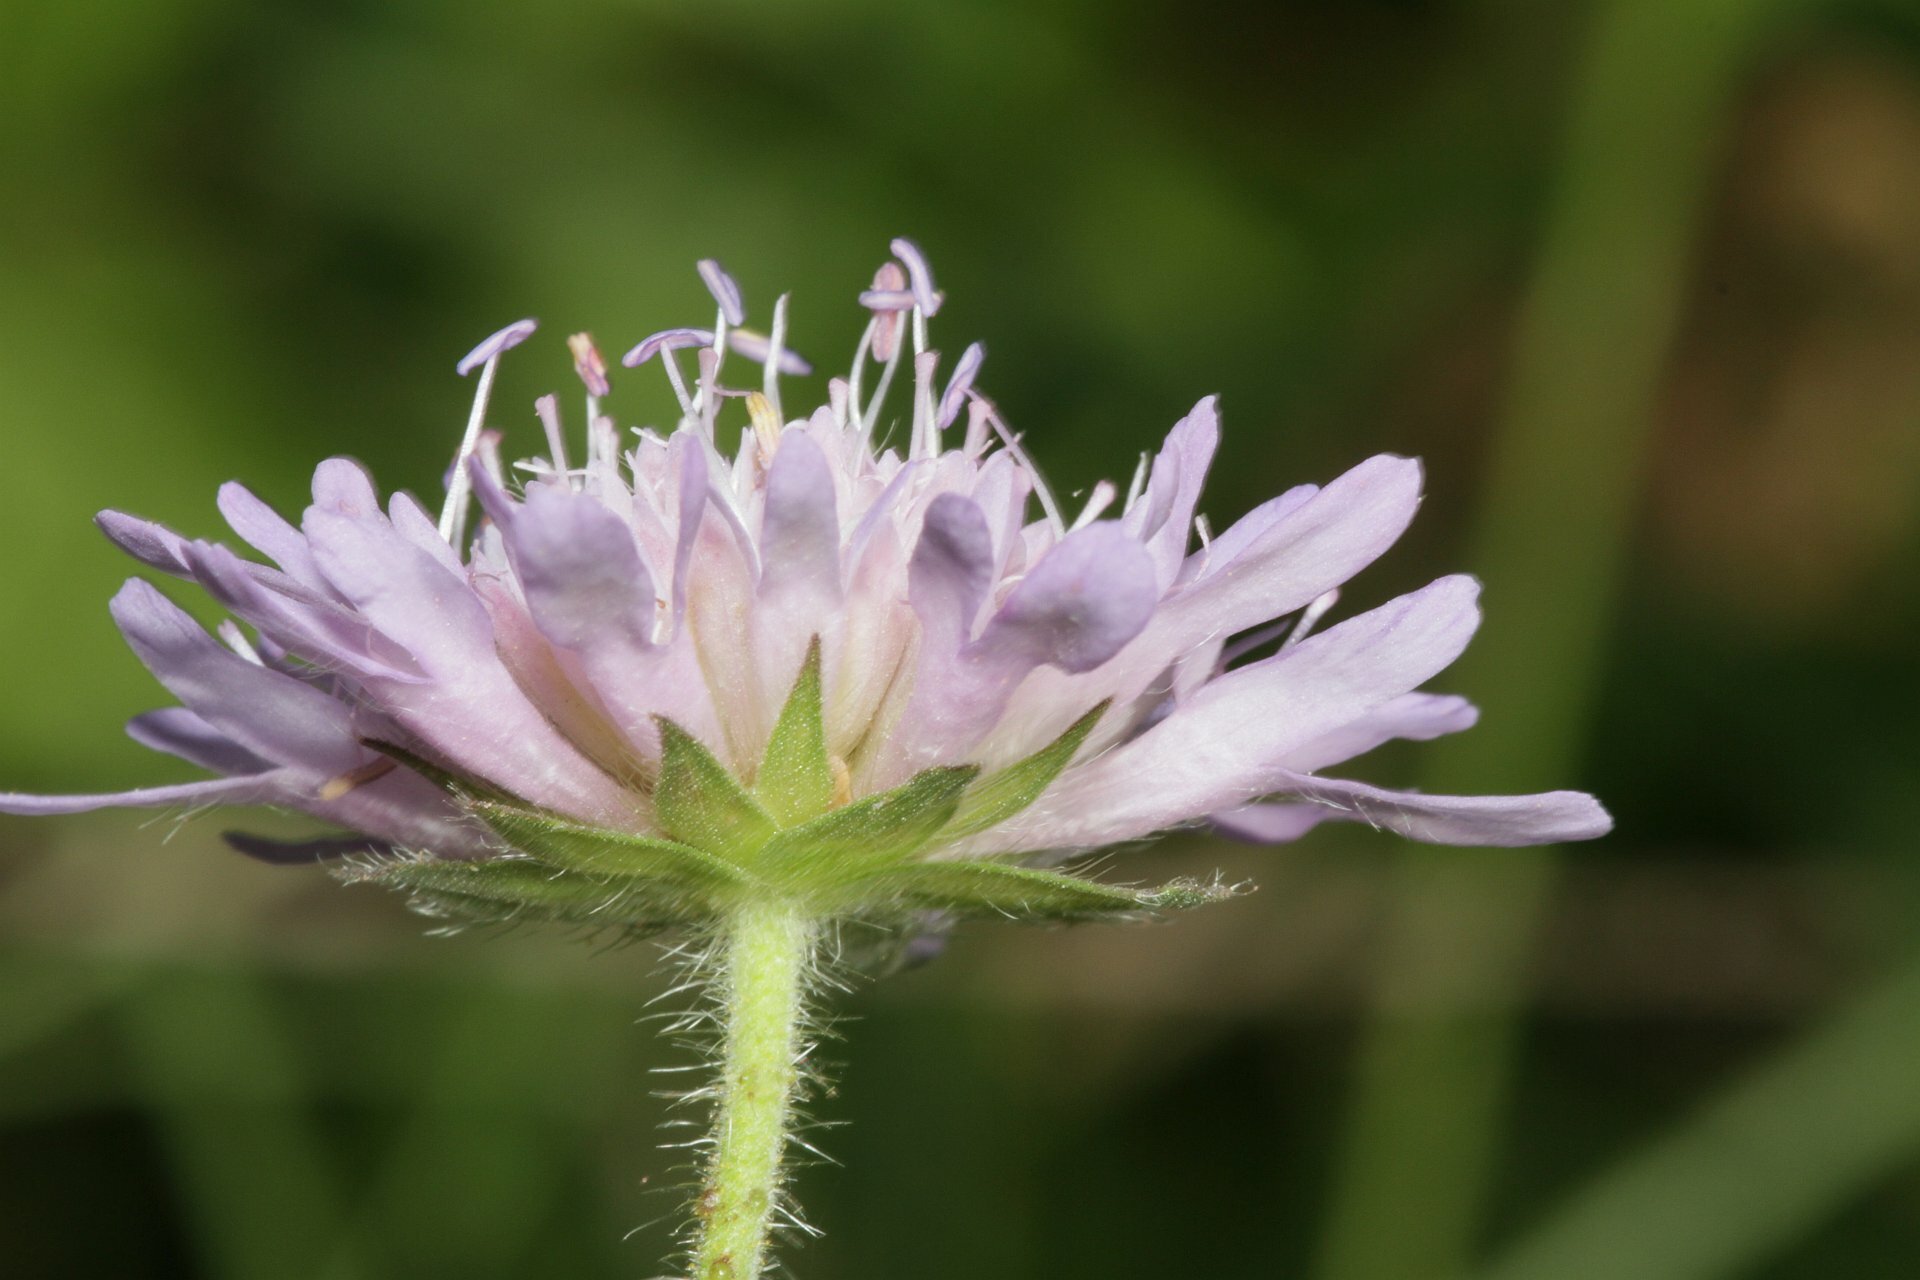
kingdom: Plantae
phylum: Tracheophyta
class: Magnoliopsida
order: Dipsacales
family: Caprifoliaceae
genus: Knautia
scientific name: Knautia arvensis
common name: Field scabiosa
